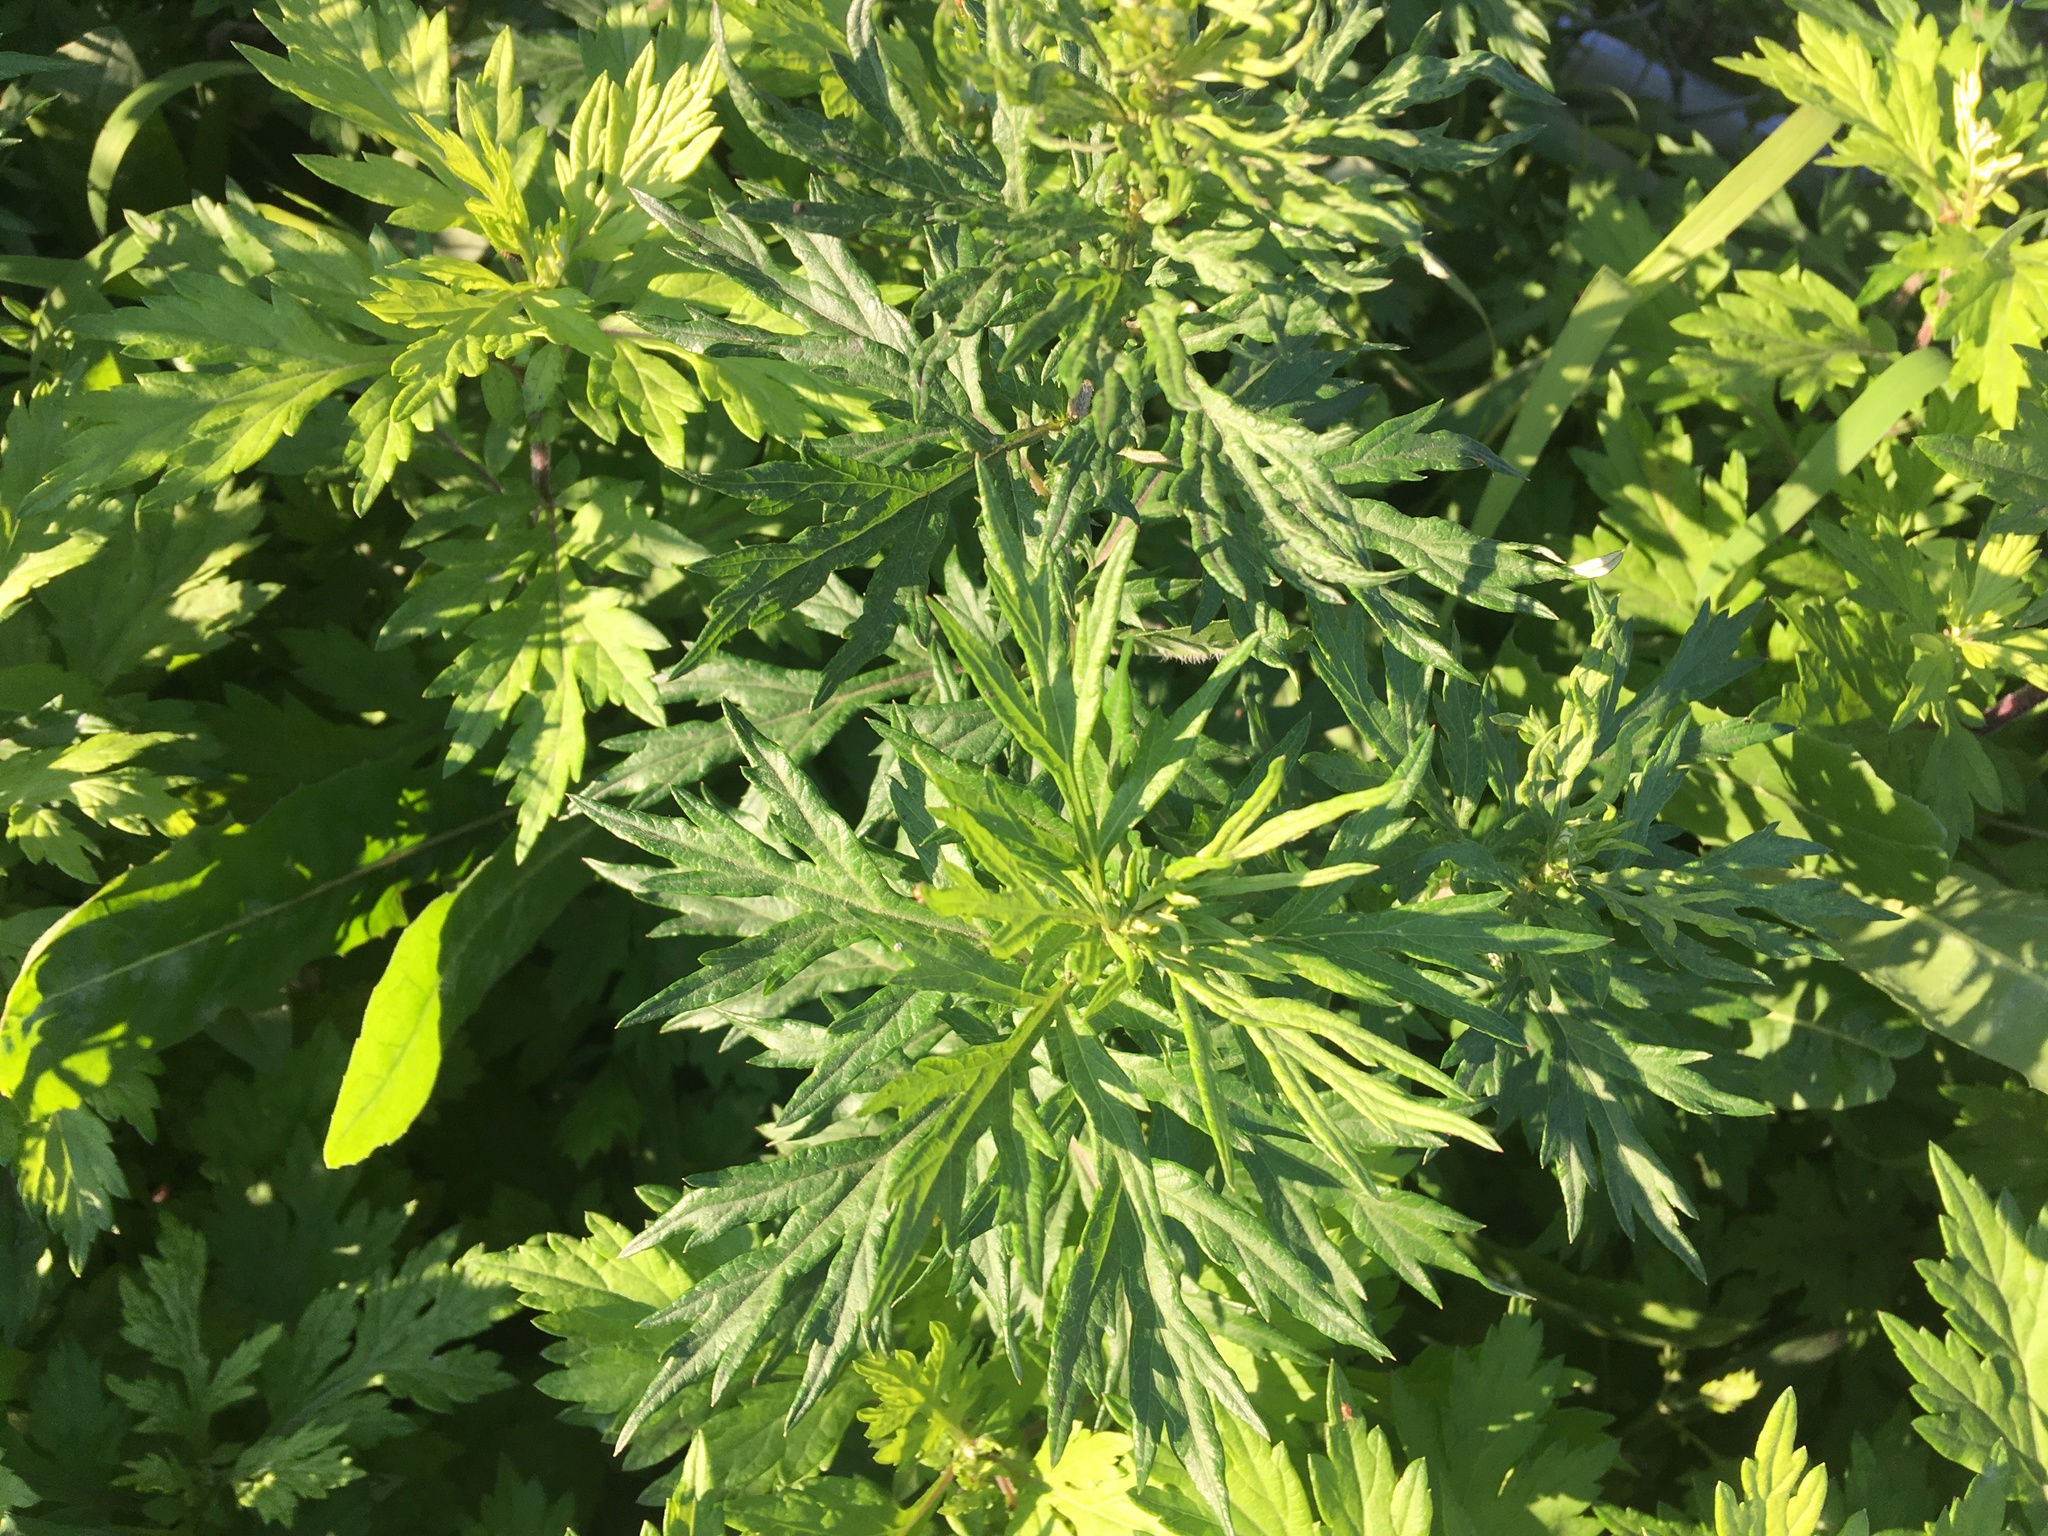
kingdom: Plantae
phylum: Tracheophyta
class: Magnoliopsida
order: Asterales
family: Asteraceae
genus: Artemisia
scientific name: Artemisia vulgaris
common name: Mugwort
